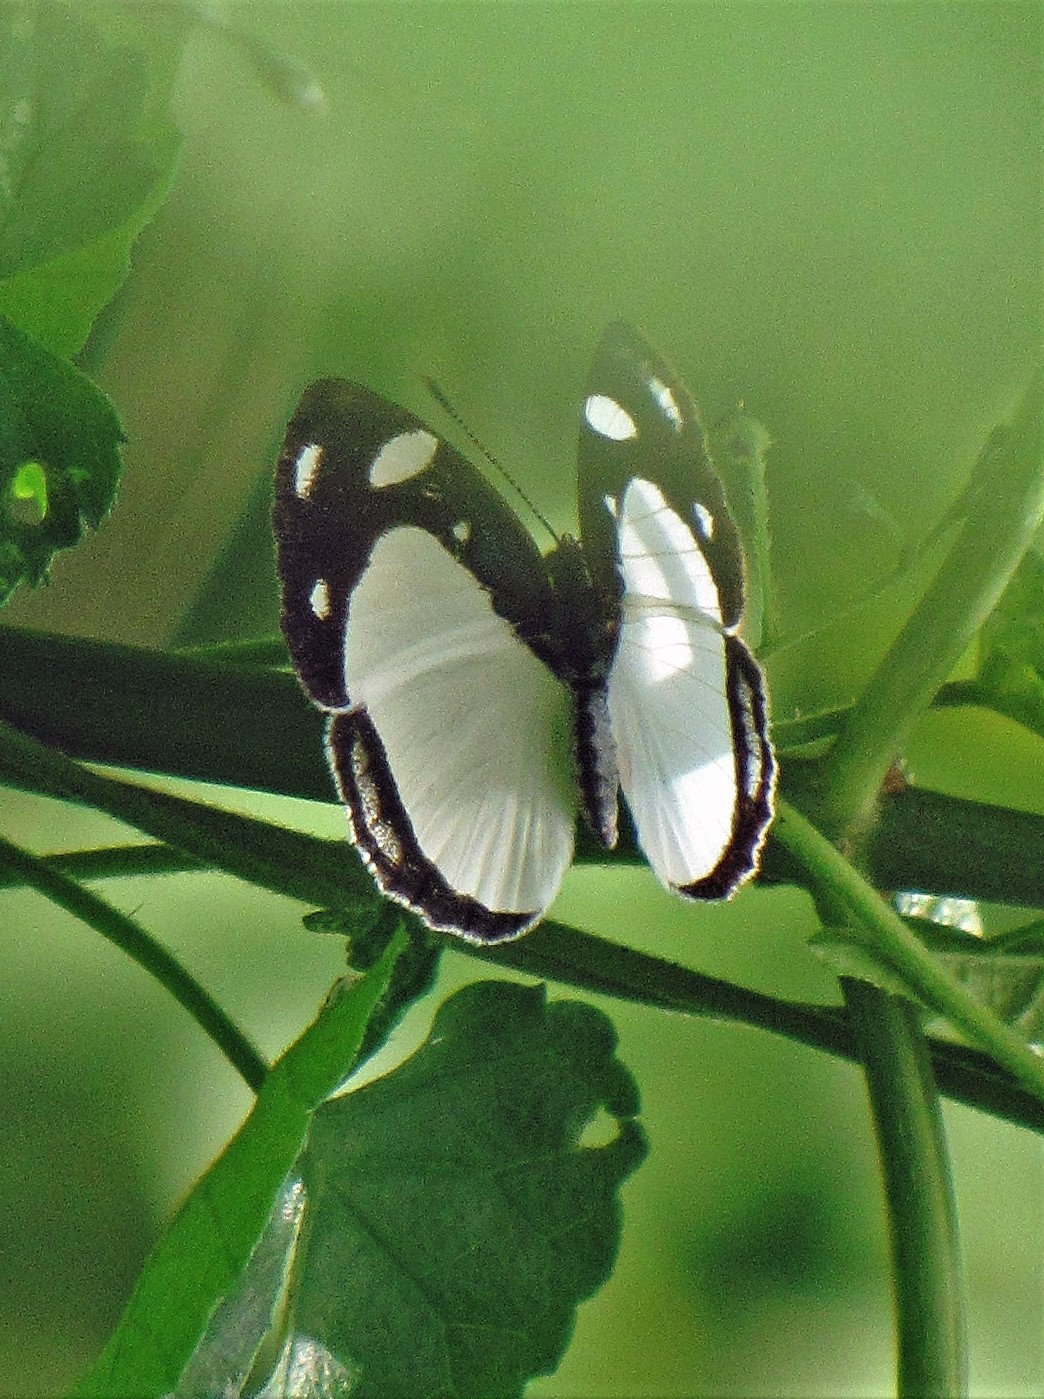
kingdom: Animalia
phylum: Arthropoda
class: Insecta
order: Lepidoptera
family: Nymphalidae
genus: Dynamine
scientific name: Dynamine coenus
